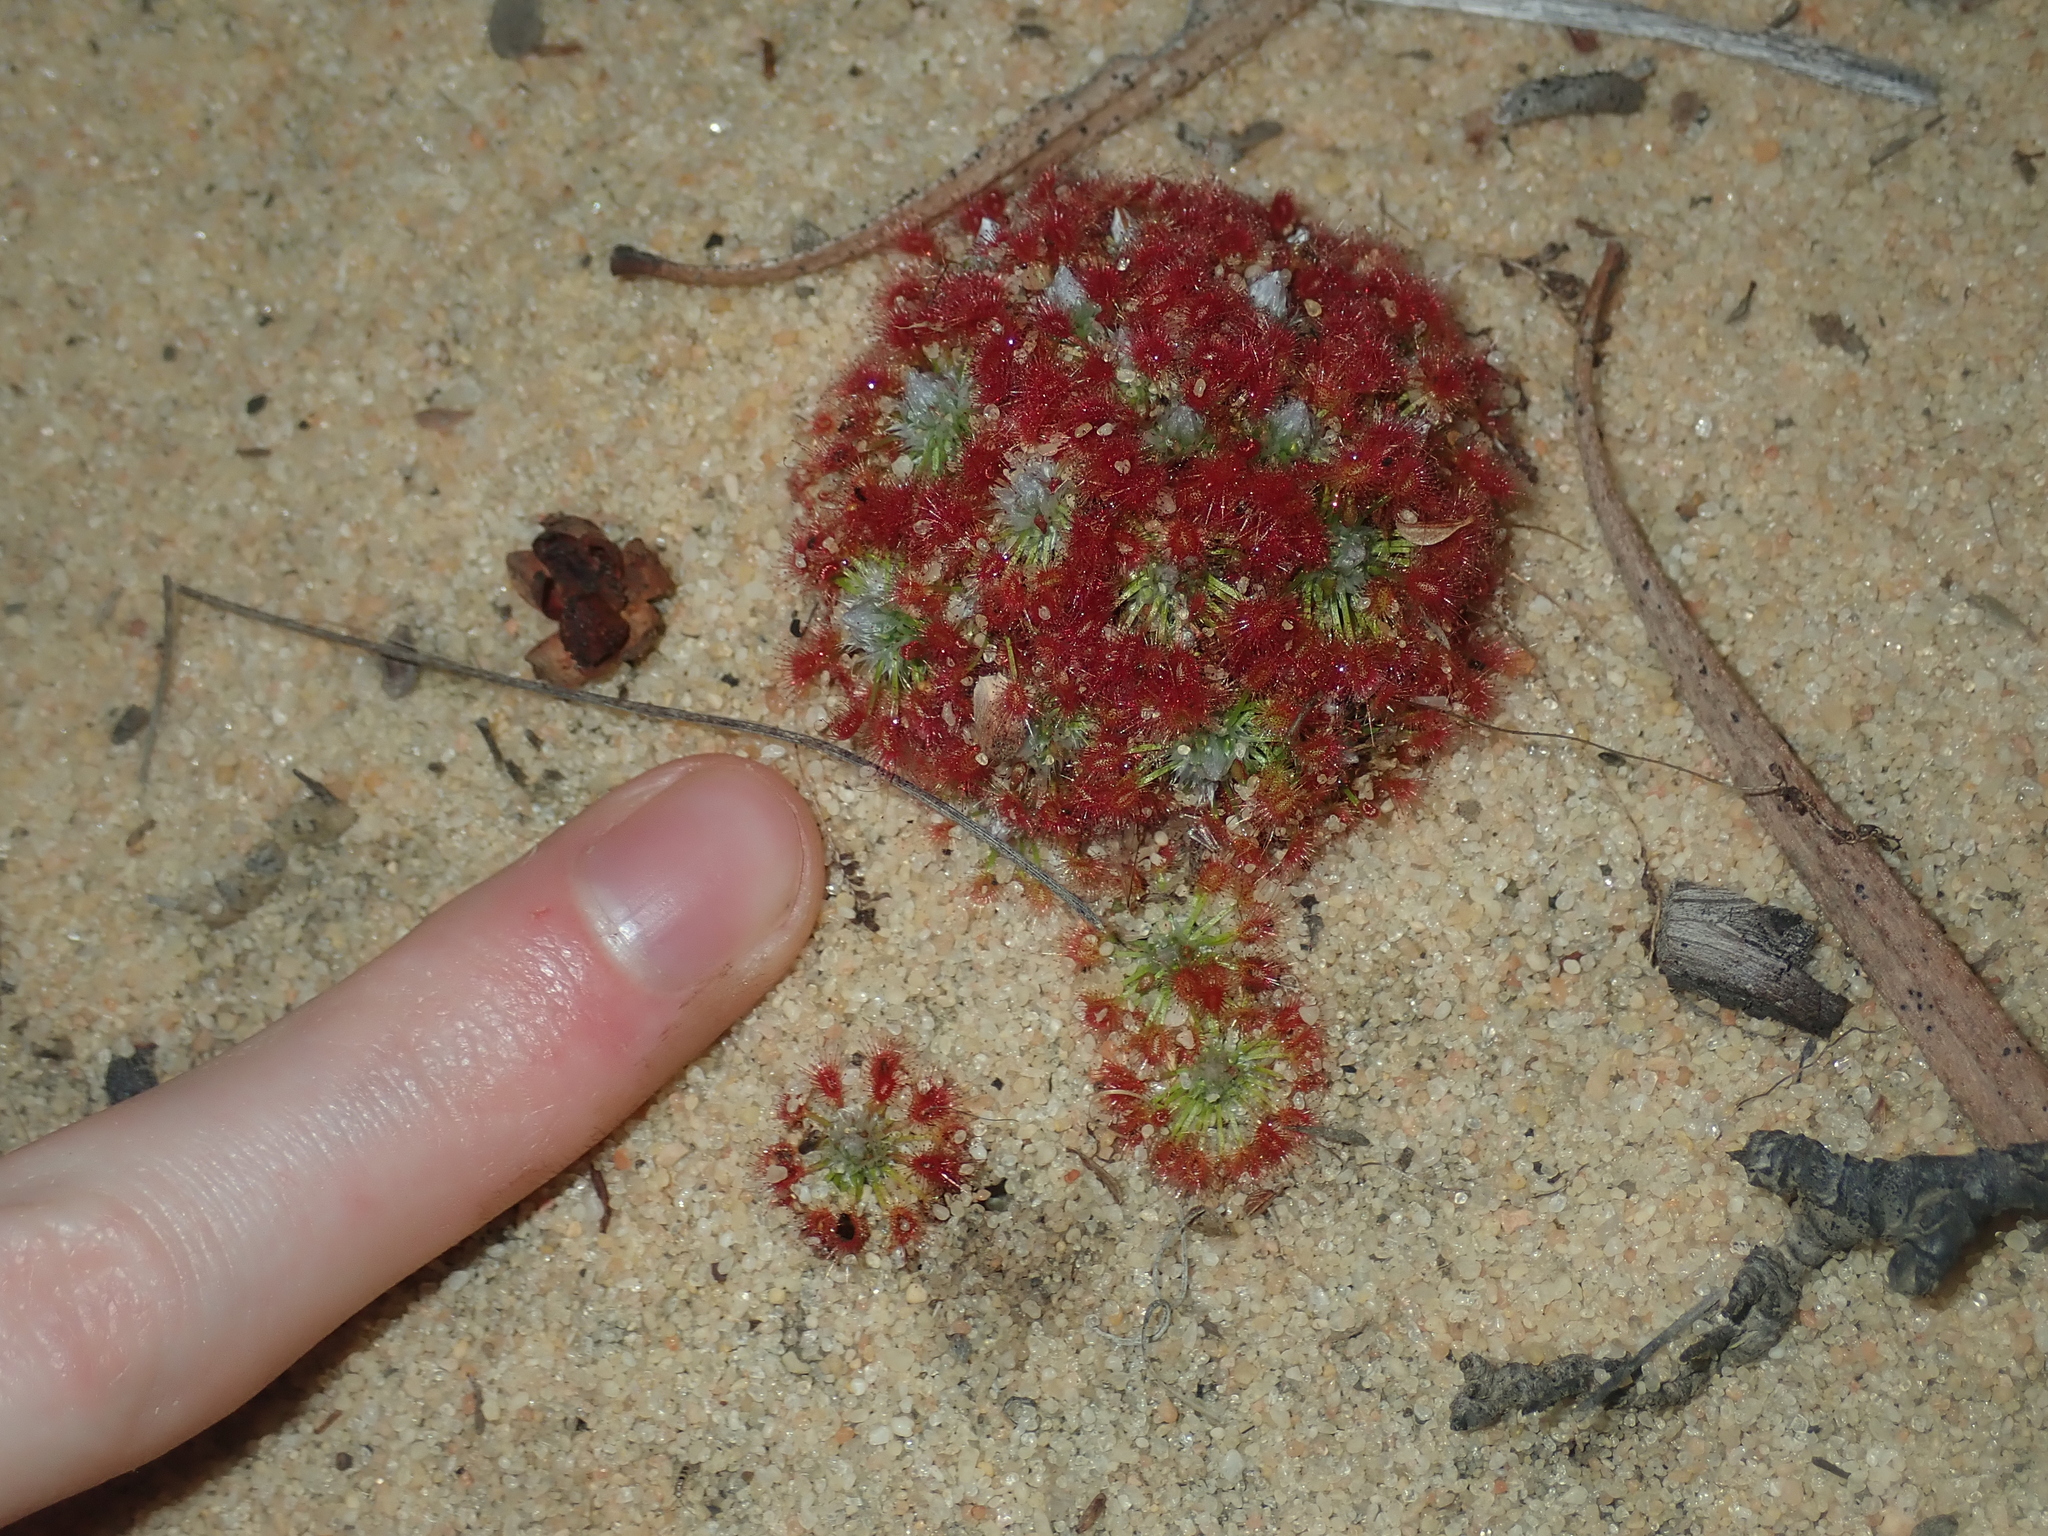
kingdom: Plantae
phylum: Tracheophyta
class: Magnoliopsida
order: Caryophyllales
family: Droseraceae
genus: Drosera
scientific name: Drosera rechingeri
